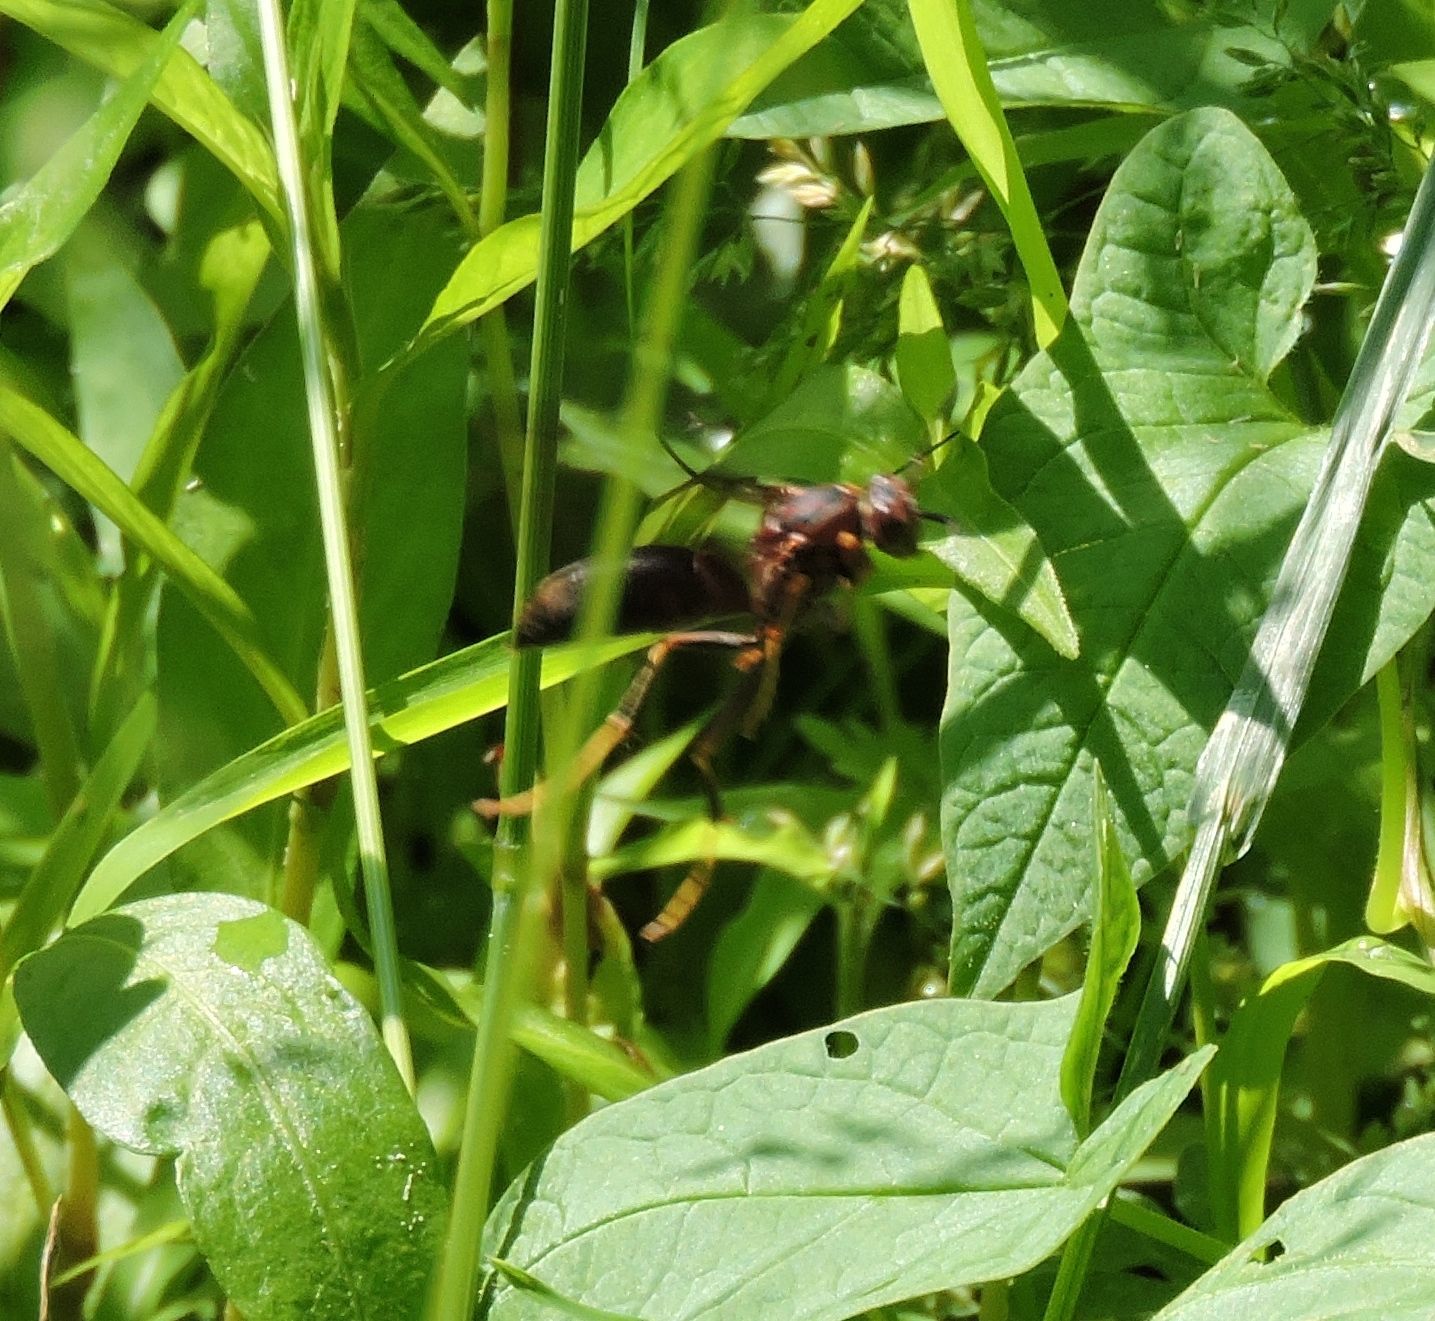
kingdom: Animalia
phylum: Arthropoda
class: Insecta
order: Hymenoptera
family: Eumenidae
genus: Polistes
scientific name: Polistes metricus
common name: Metric paper wasp
